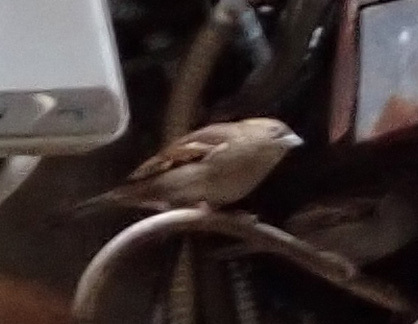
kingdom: Animalia
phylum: Chordata
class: Aves
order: Passeriformes
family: Passeridae
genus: Passer
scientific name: Passer italiae
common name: Italian sparrow
